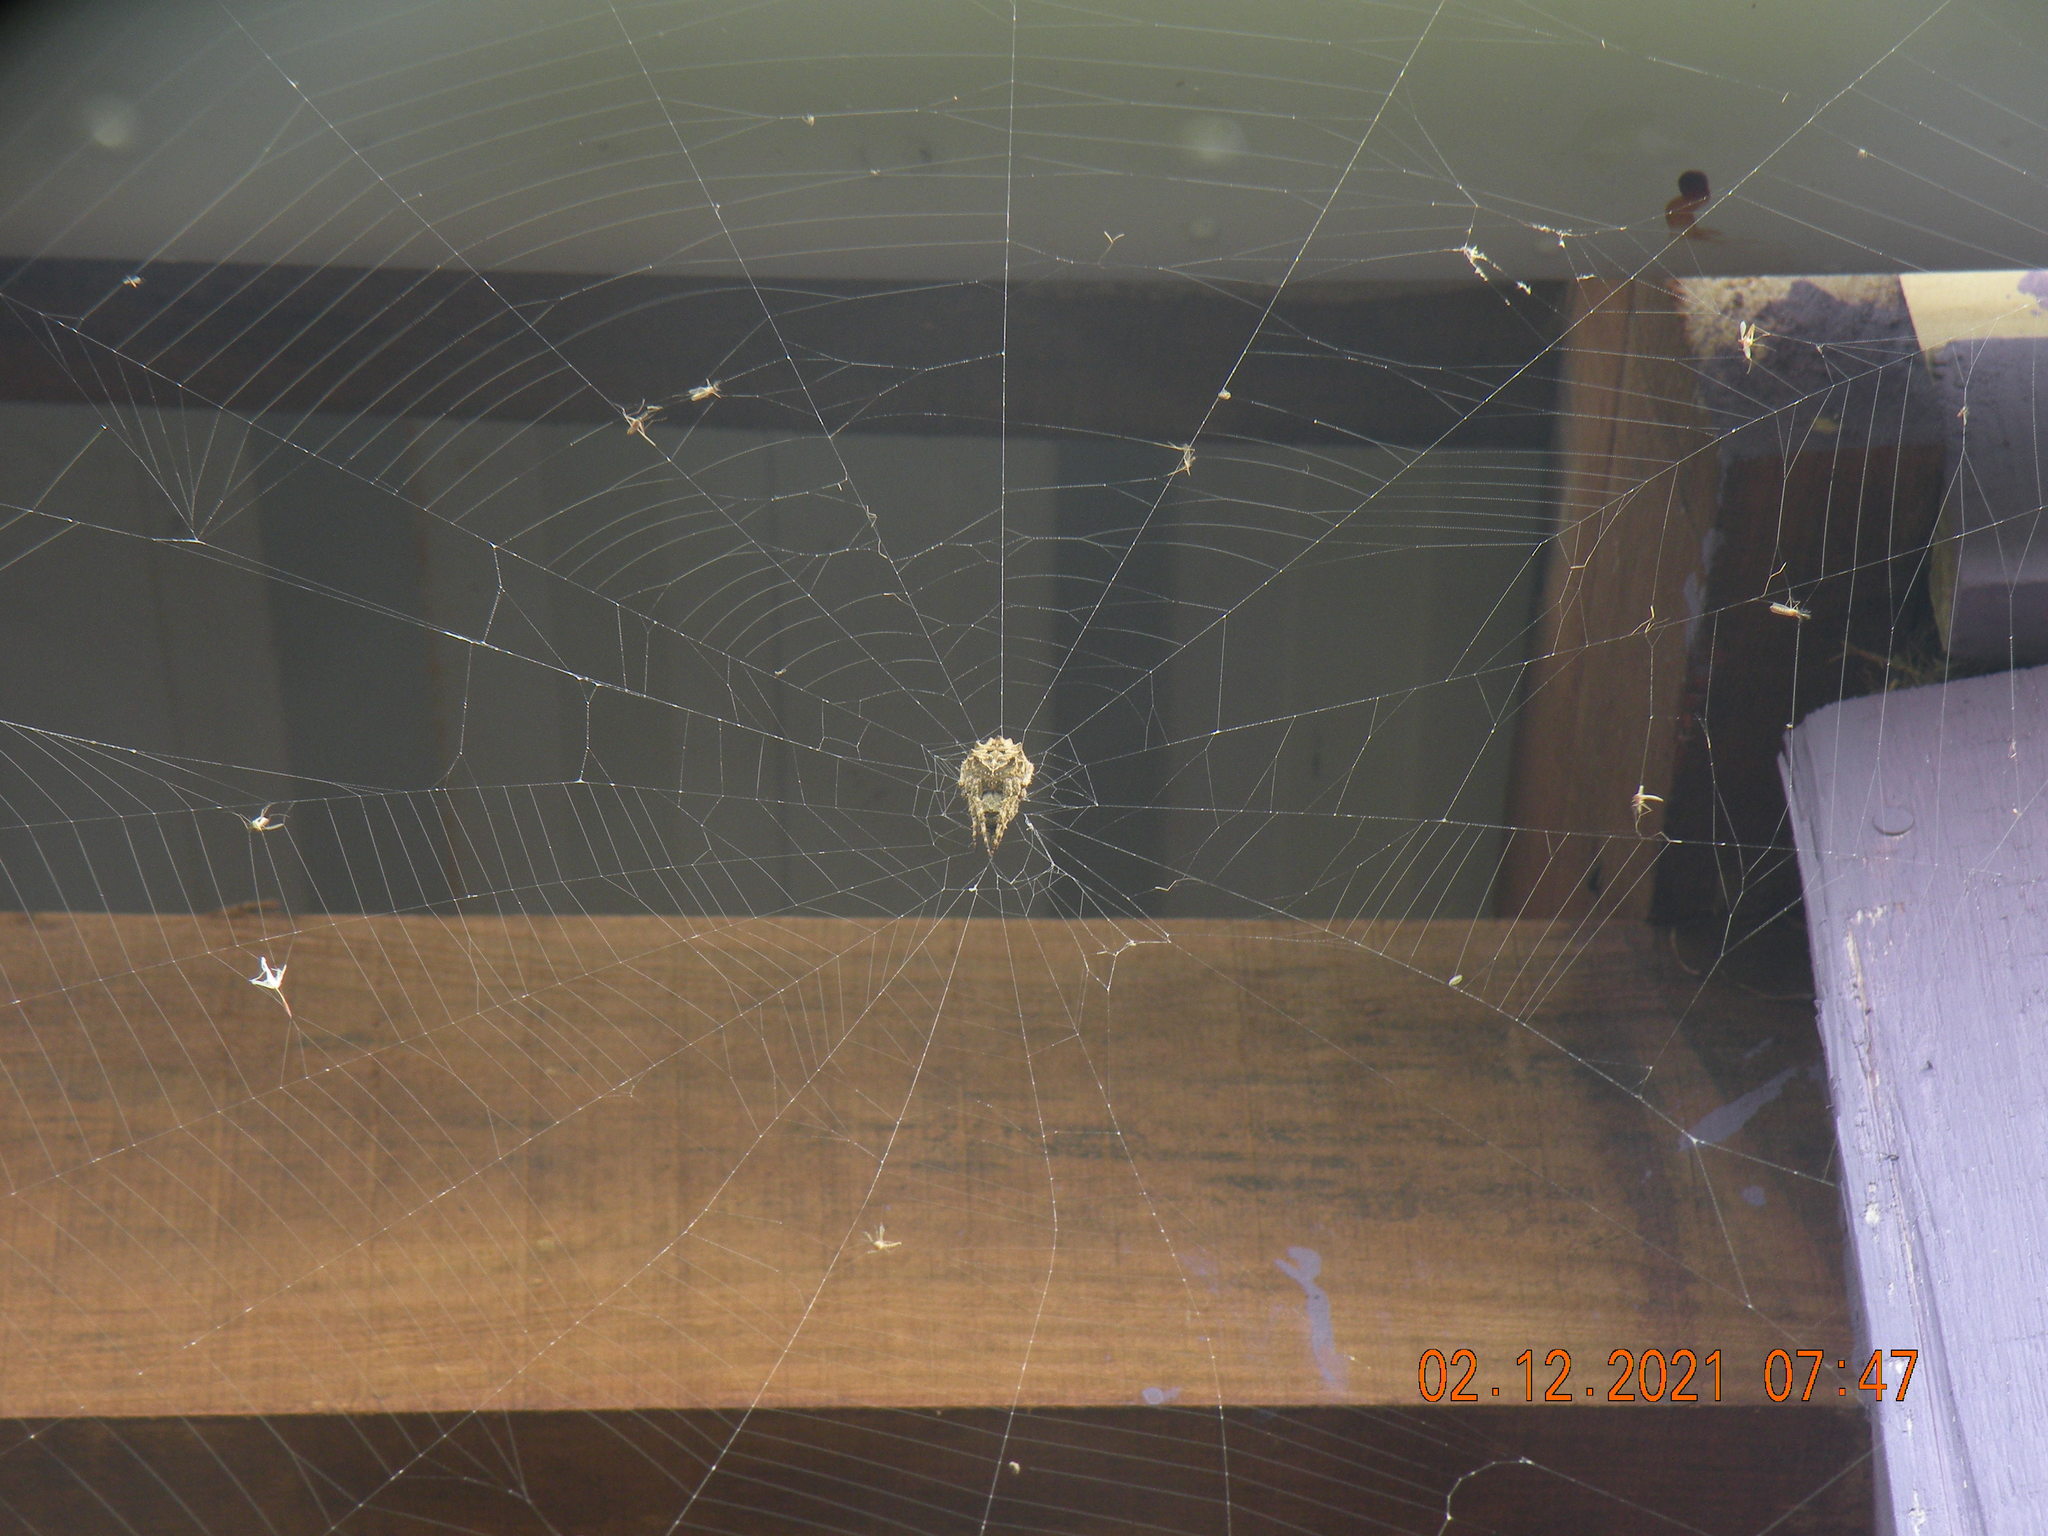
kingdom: Animalia
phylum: Arthropoda
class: Arachnida
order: Araneae
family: Araneidae
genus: Parawixia
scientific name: Parawixia audax
